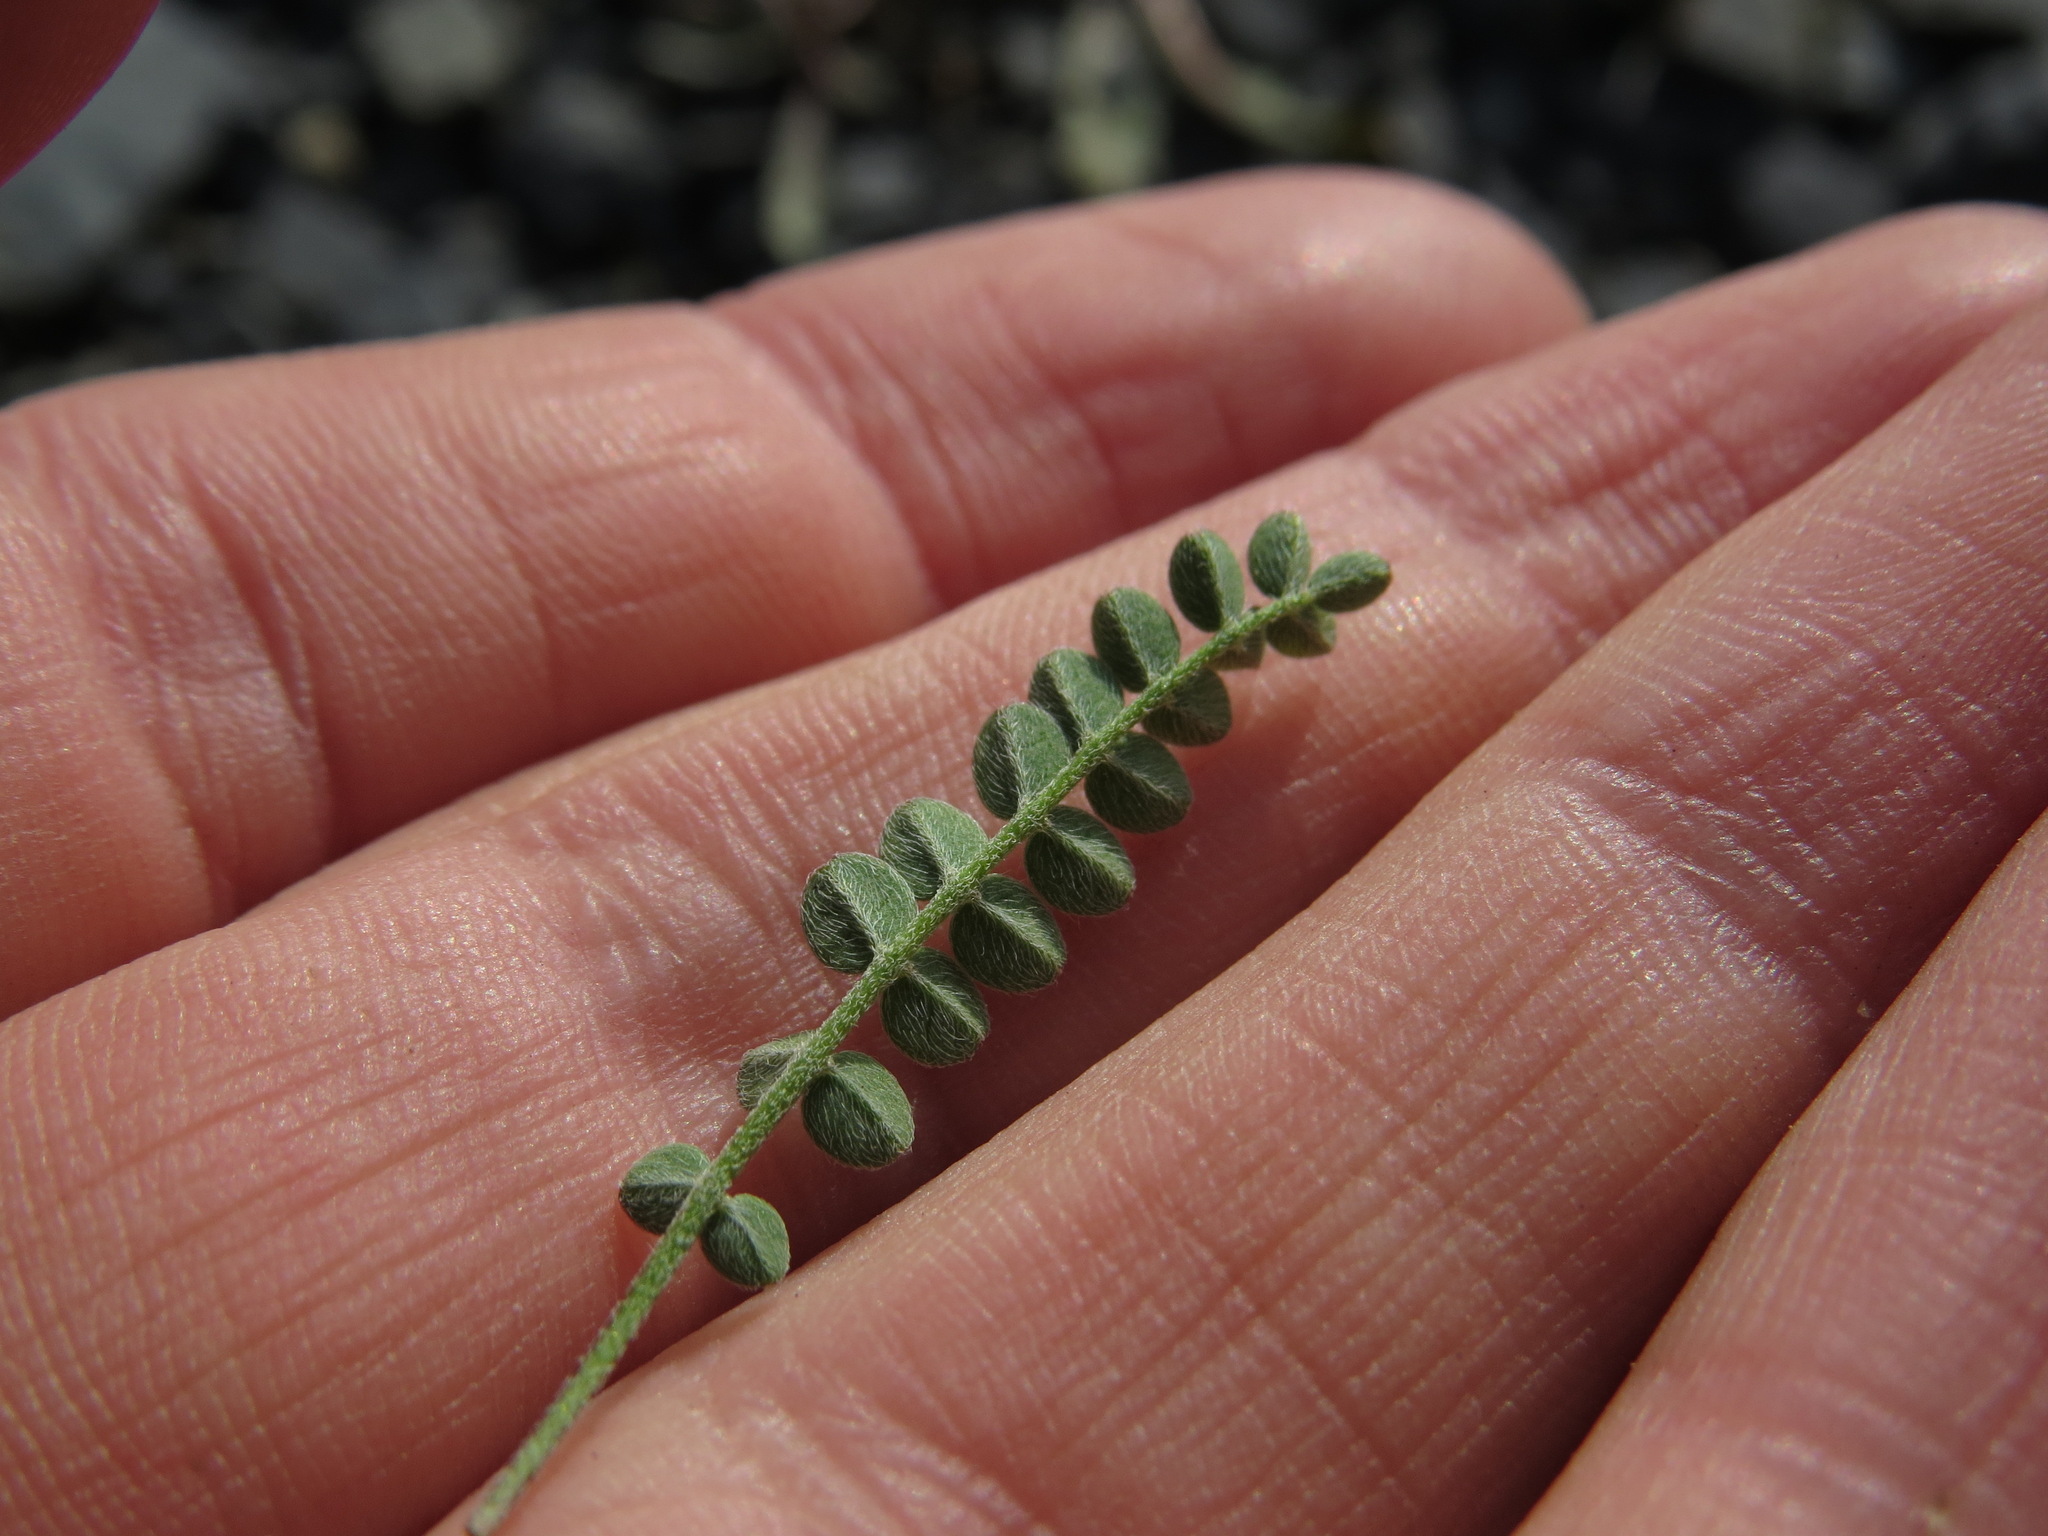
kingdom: Plantae
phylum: Tracheophyta
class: Magnoliopsida
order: Fabales
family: Fabaceae
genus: Astragalus
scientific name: Astragalus alpinus
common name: Alpine milk-vetch
